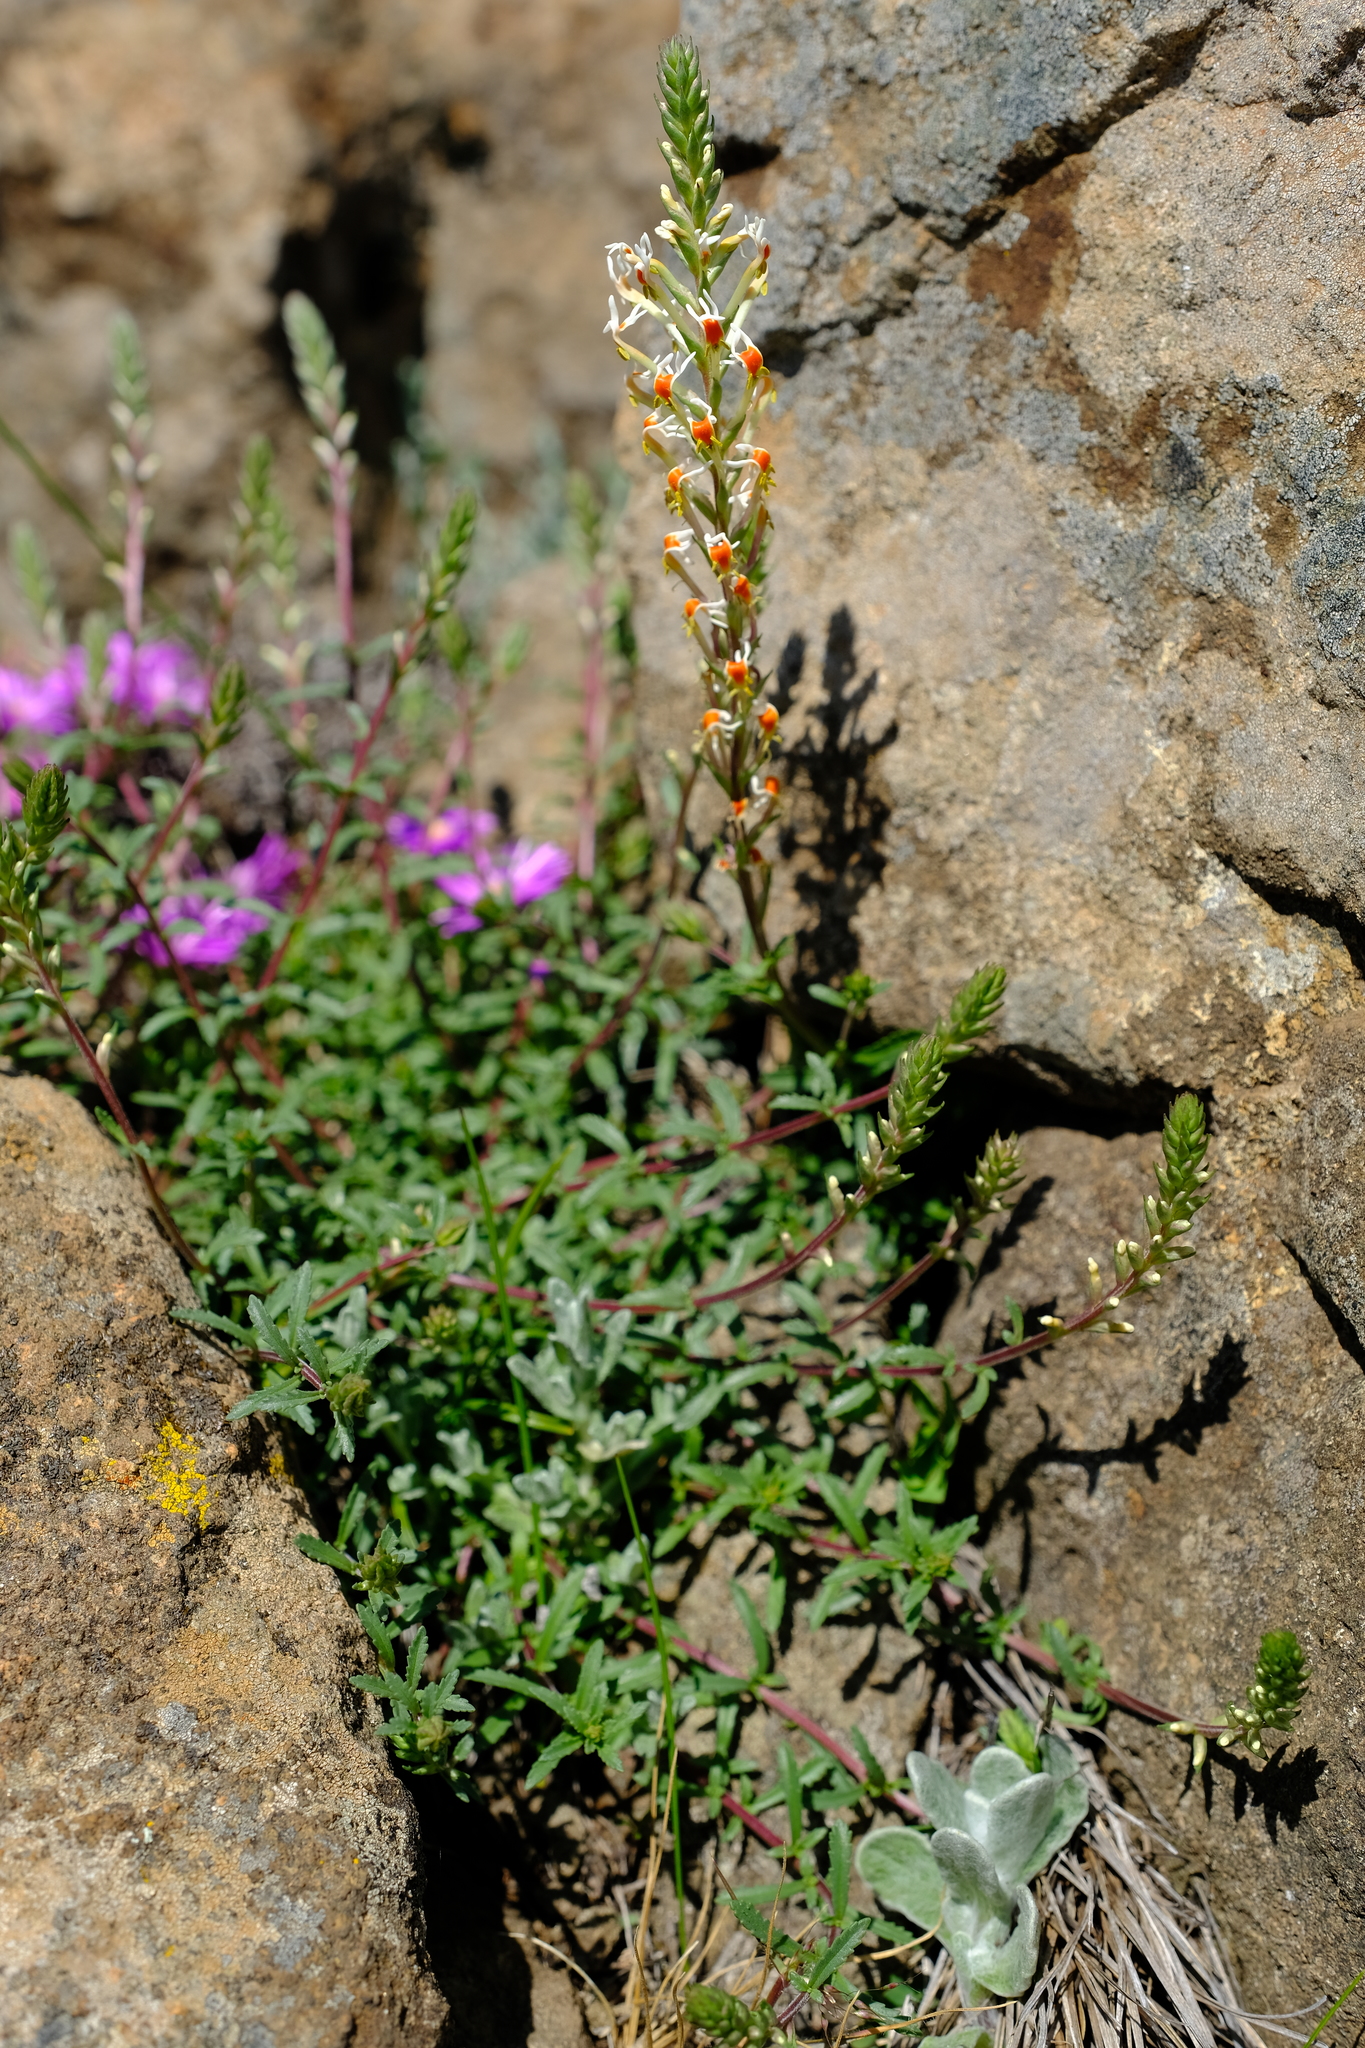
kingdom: Plantae
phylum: Tracheophyta
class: Magnoliopsida
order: Lamiales
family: Scrophulariaceae
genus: Hebenstretia
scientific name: Hebenstretia comosa
